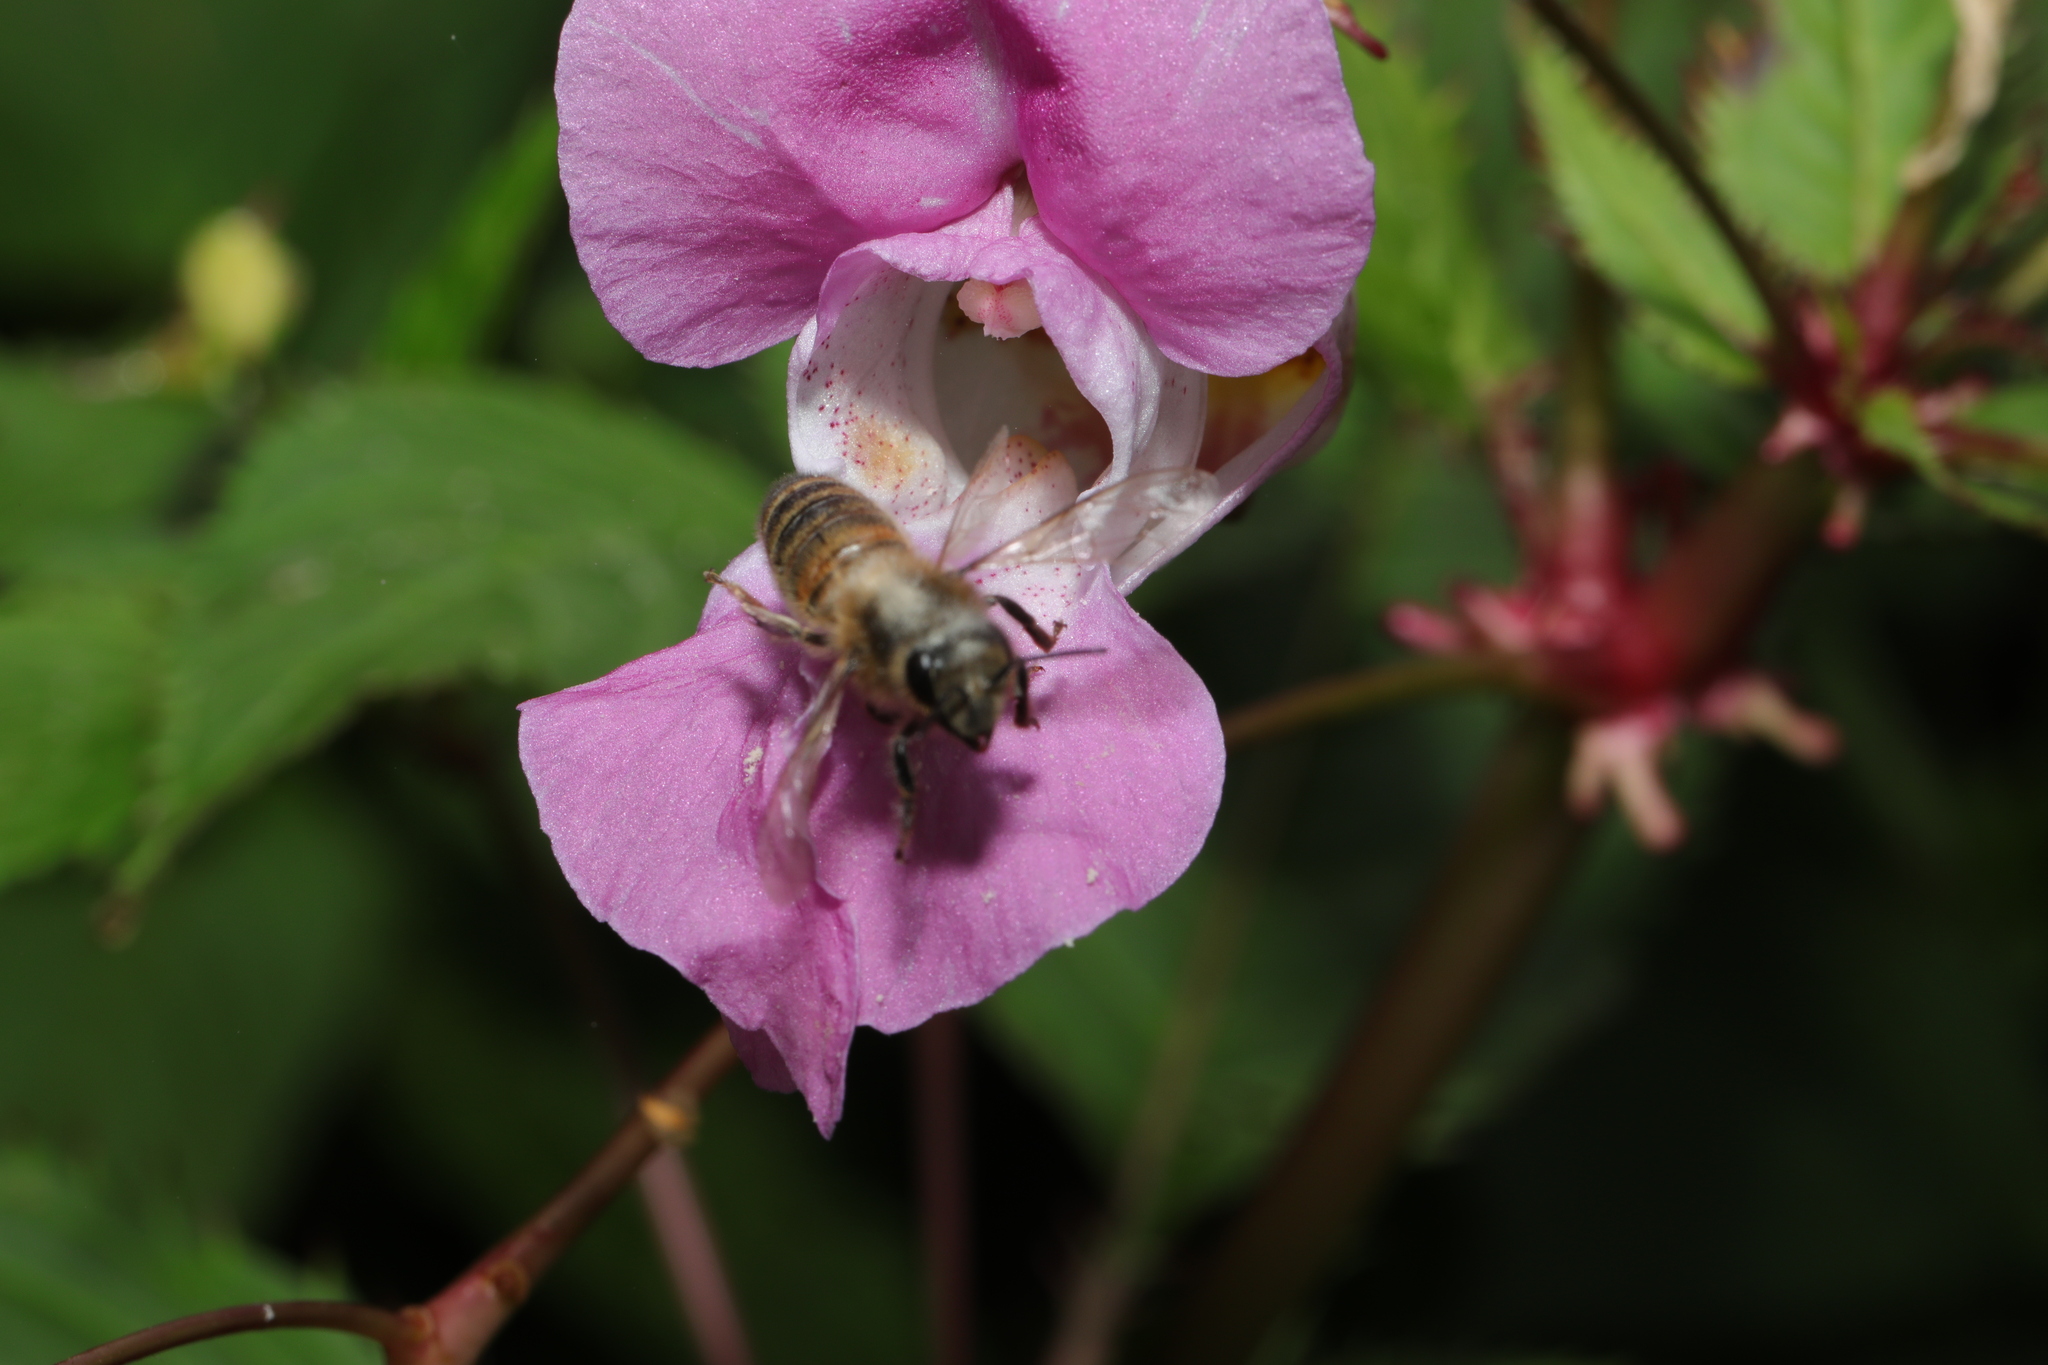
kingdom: Animalia
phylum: Arthropoda
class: Insecta
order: Hymenoptera
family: Apidae
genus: Apis
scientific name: Apis mellifera
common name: Honey bee
